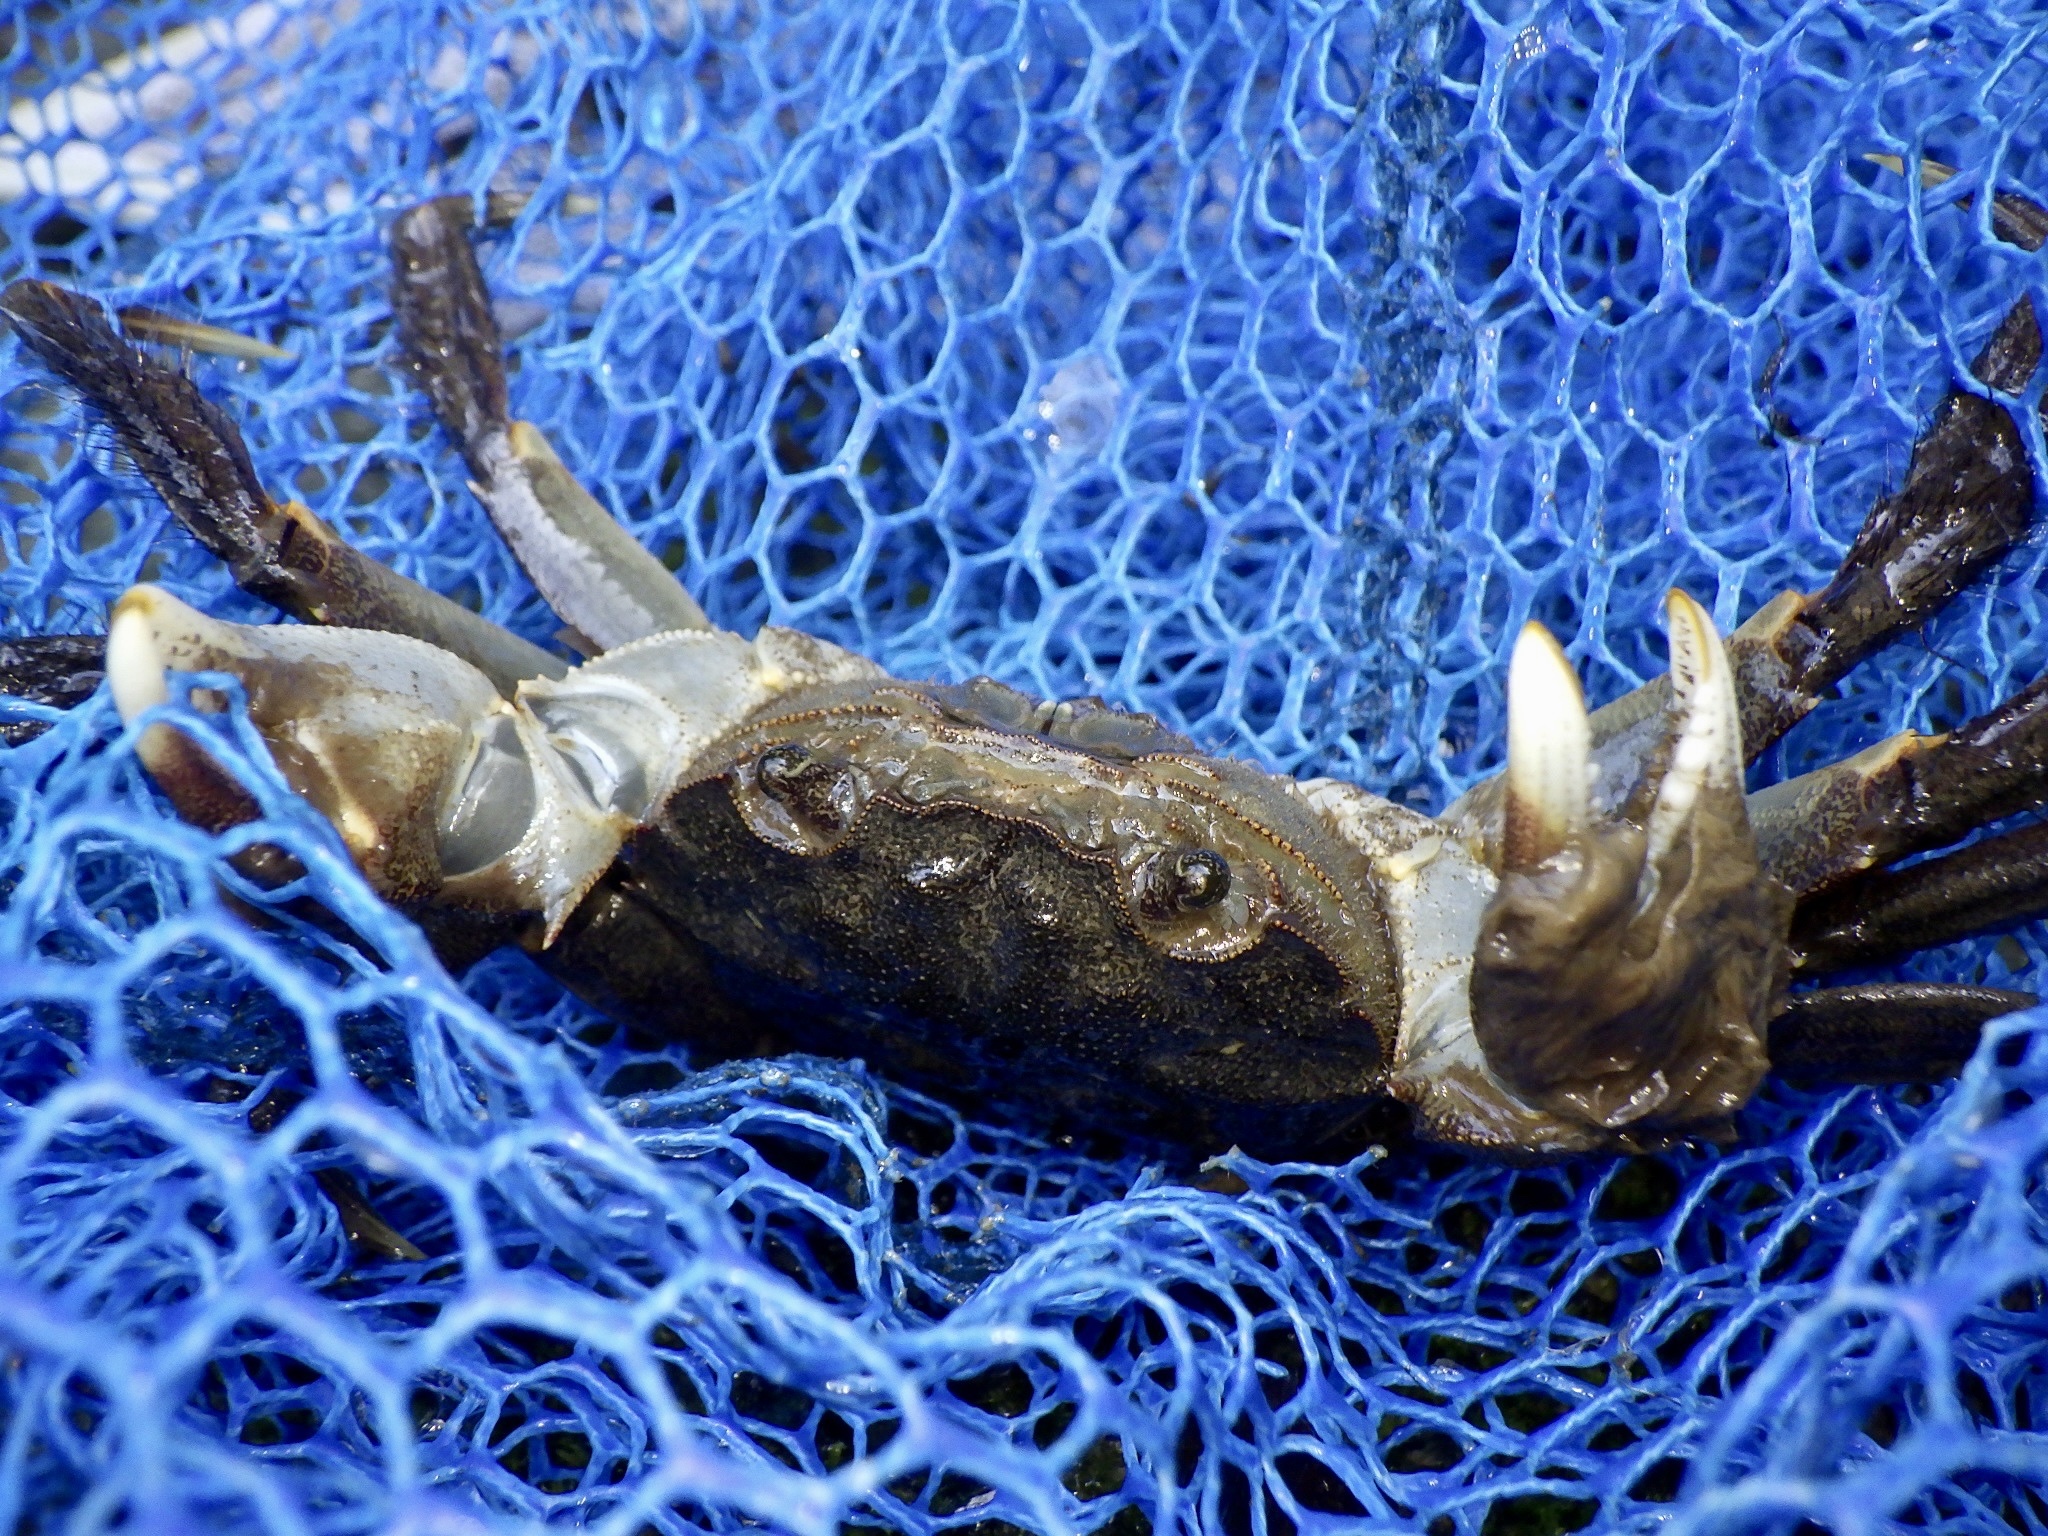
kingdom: Animalia
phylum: Arthropoda
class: Malacostraca
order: Decapoda
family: Varunidae
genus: Eriocheir
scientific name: Eriocheir japonica
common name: Japanese mitten crab
